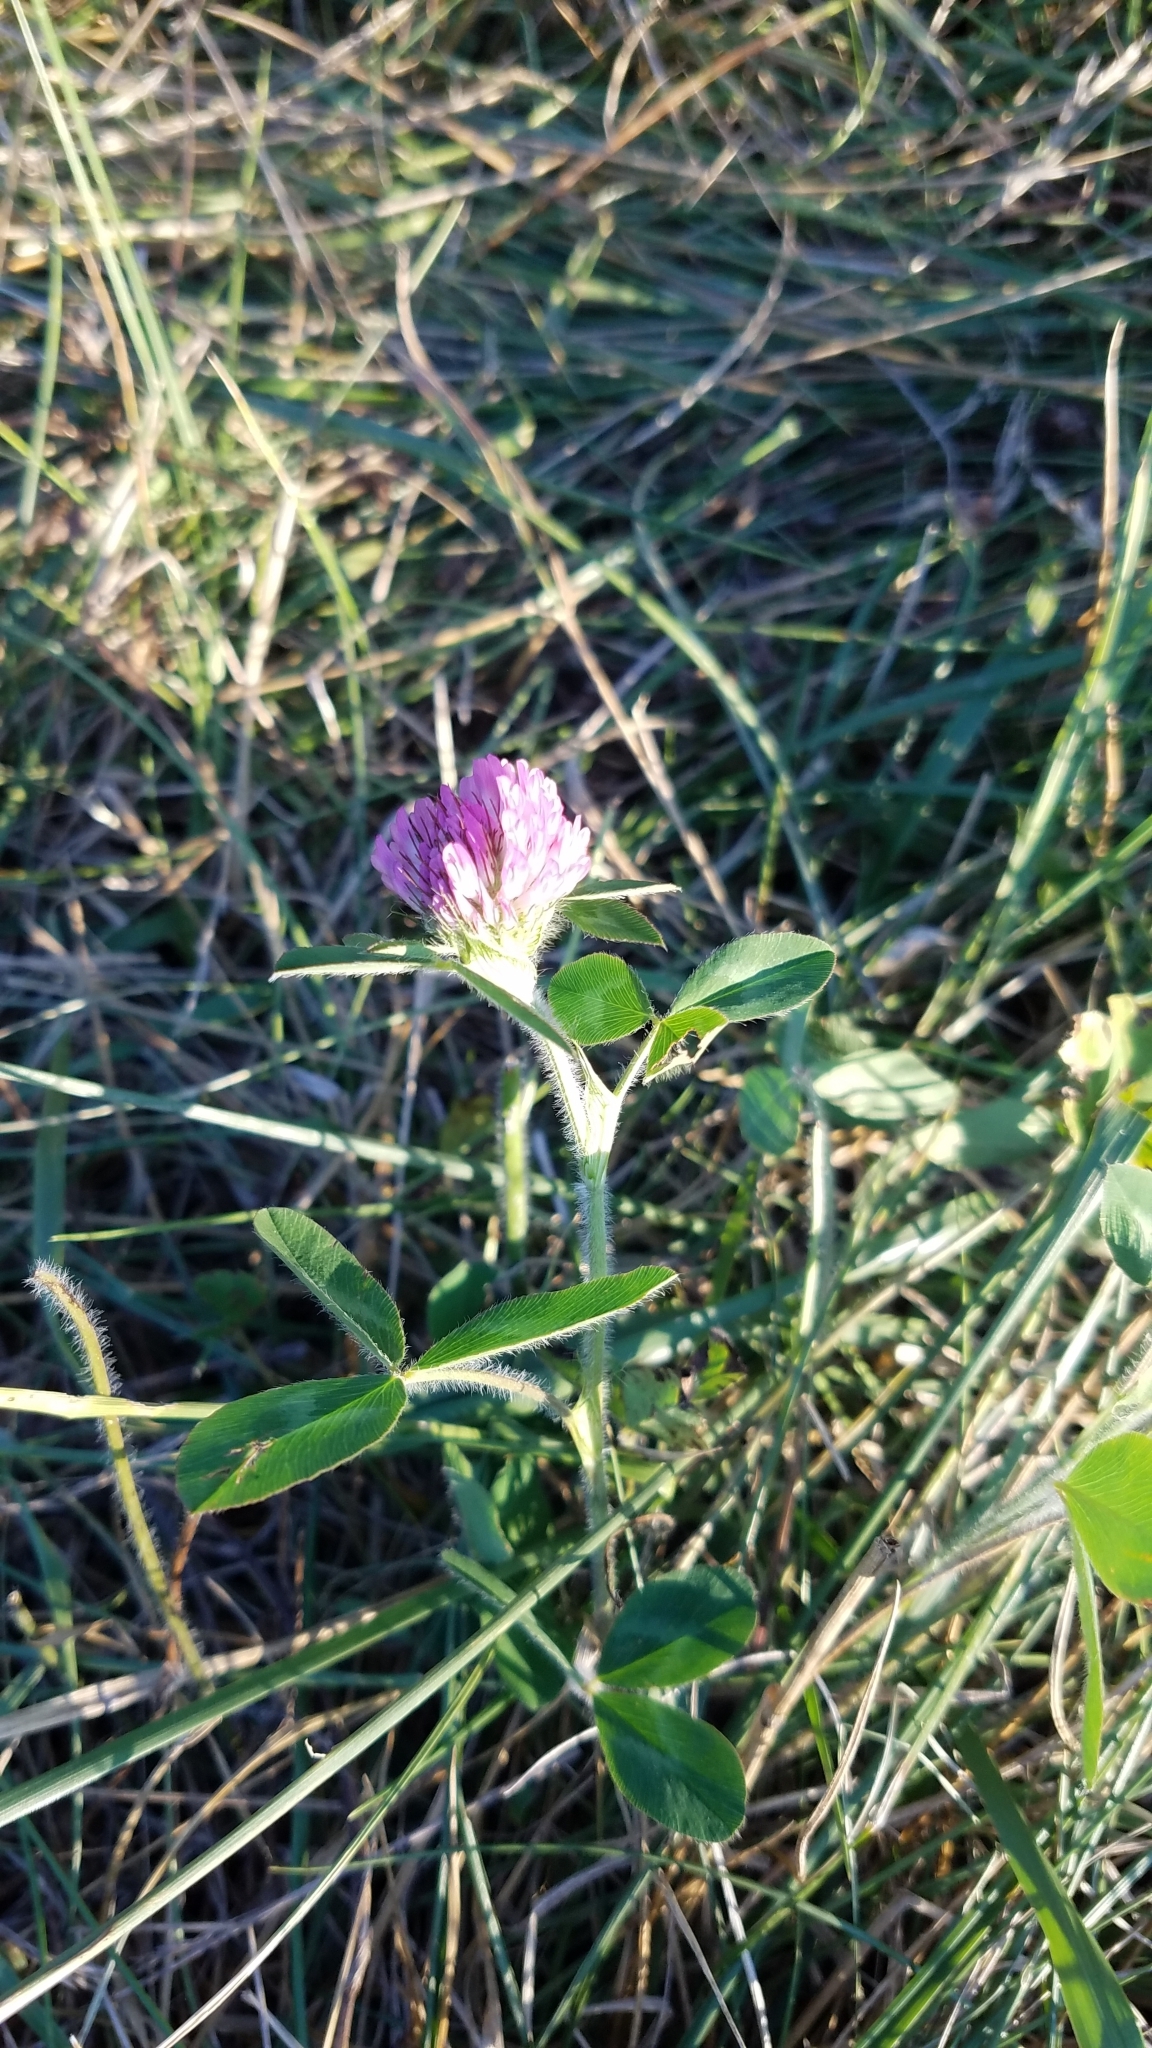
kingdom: Plantae
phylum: Tracheophyta
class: Magnoliopsida
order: Fabales
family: Fabaceae
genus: Trifolium
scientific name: Trifolium pratense
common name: Red clover
